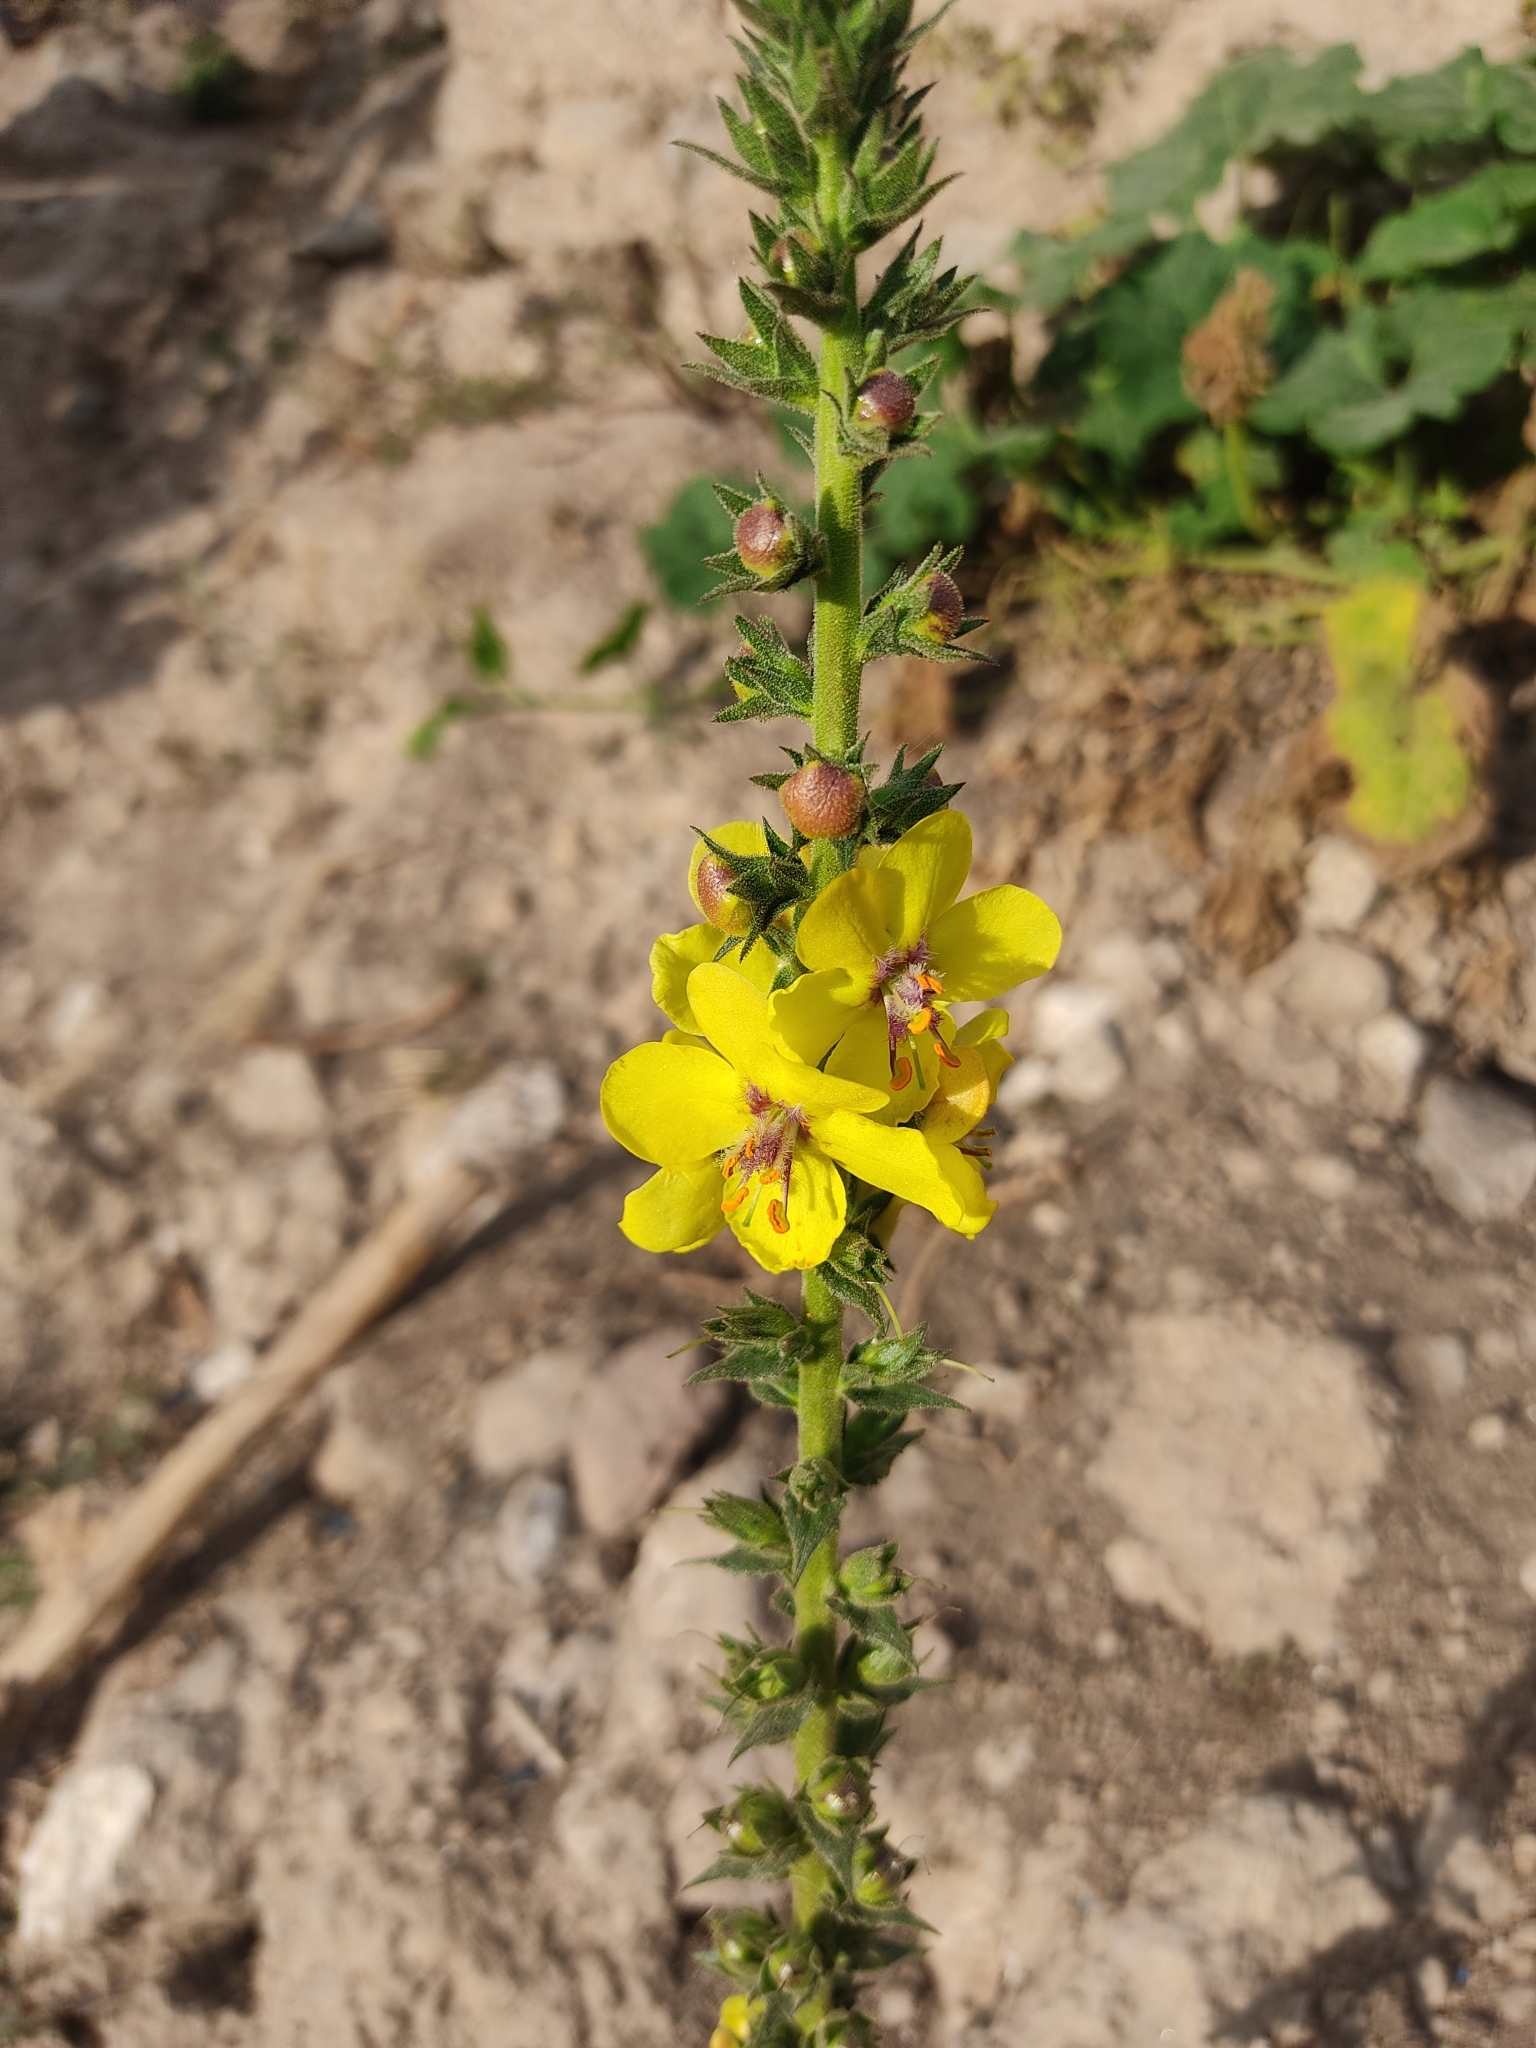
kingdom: Plantae
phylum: Tracheophyta
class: Magnoliopsida
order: Lamiales
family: Scrophulariaceae
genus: Verbascum
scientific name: Verbascum virgatum
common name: Twiggy mullein
